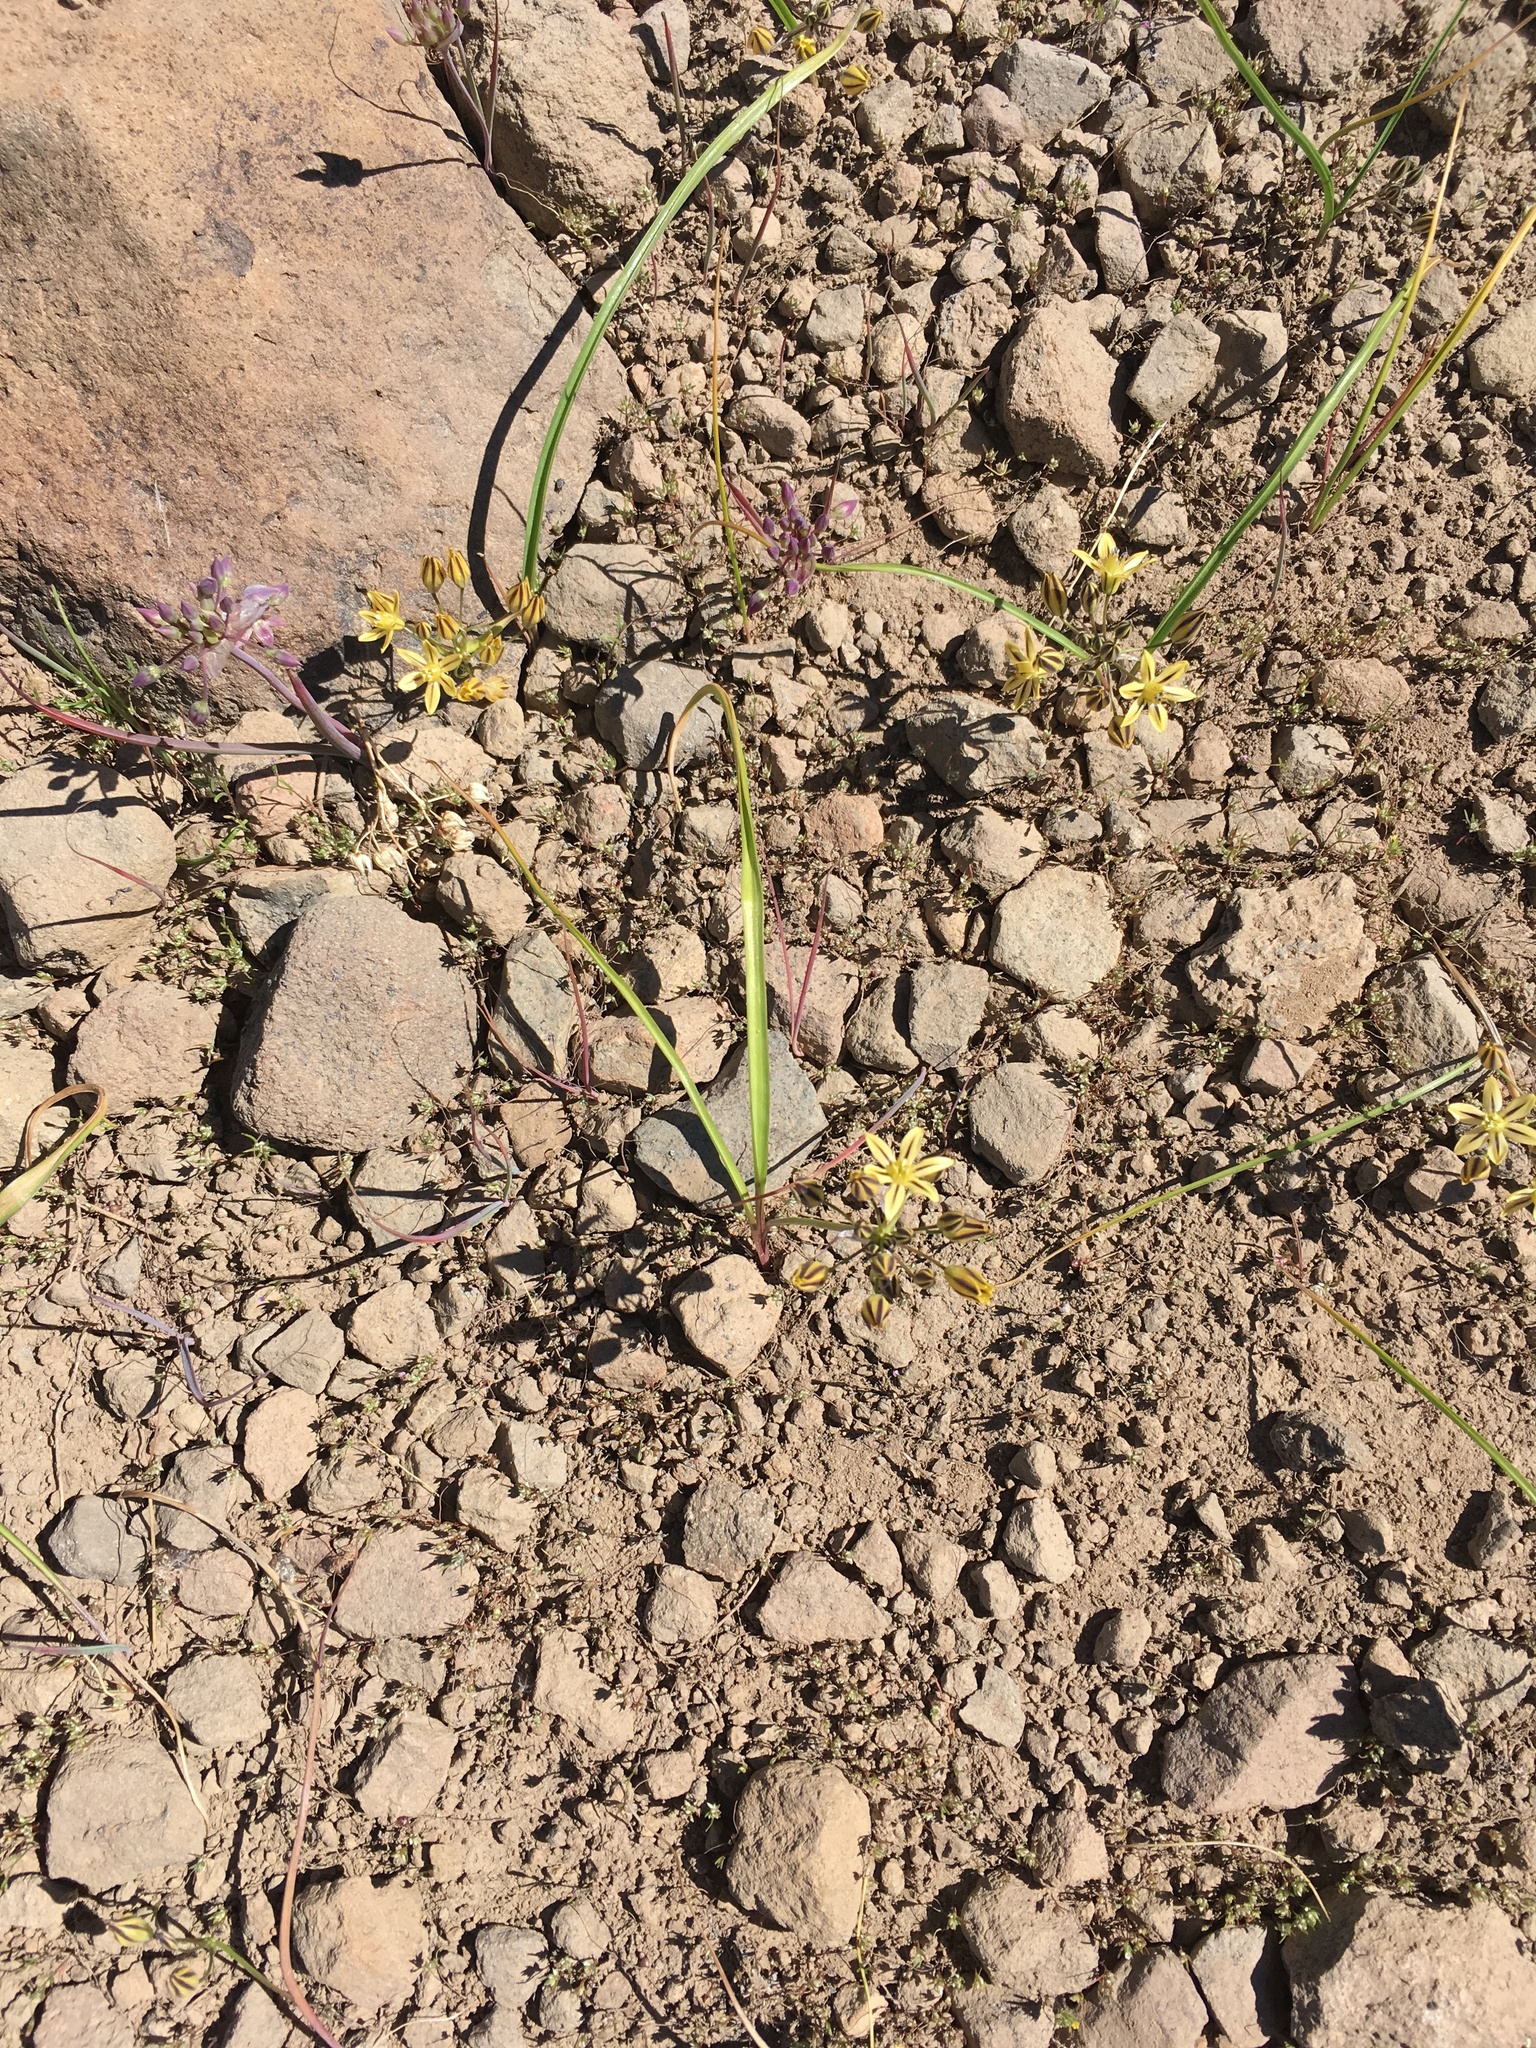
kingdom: Plantae
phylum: Tracheophyta
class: Liliopsida
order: Asparagales
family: Asparagaceae
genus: Triteleia
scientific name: Triteleia ixioides
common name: Yellow-brodiaea
